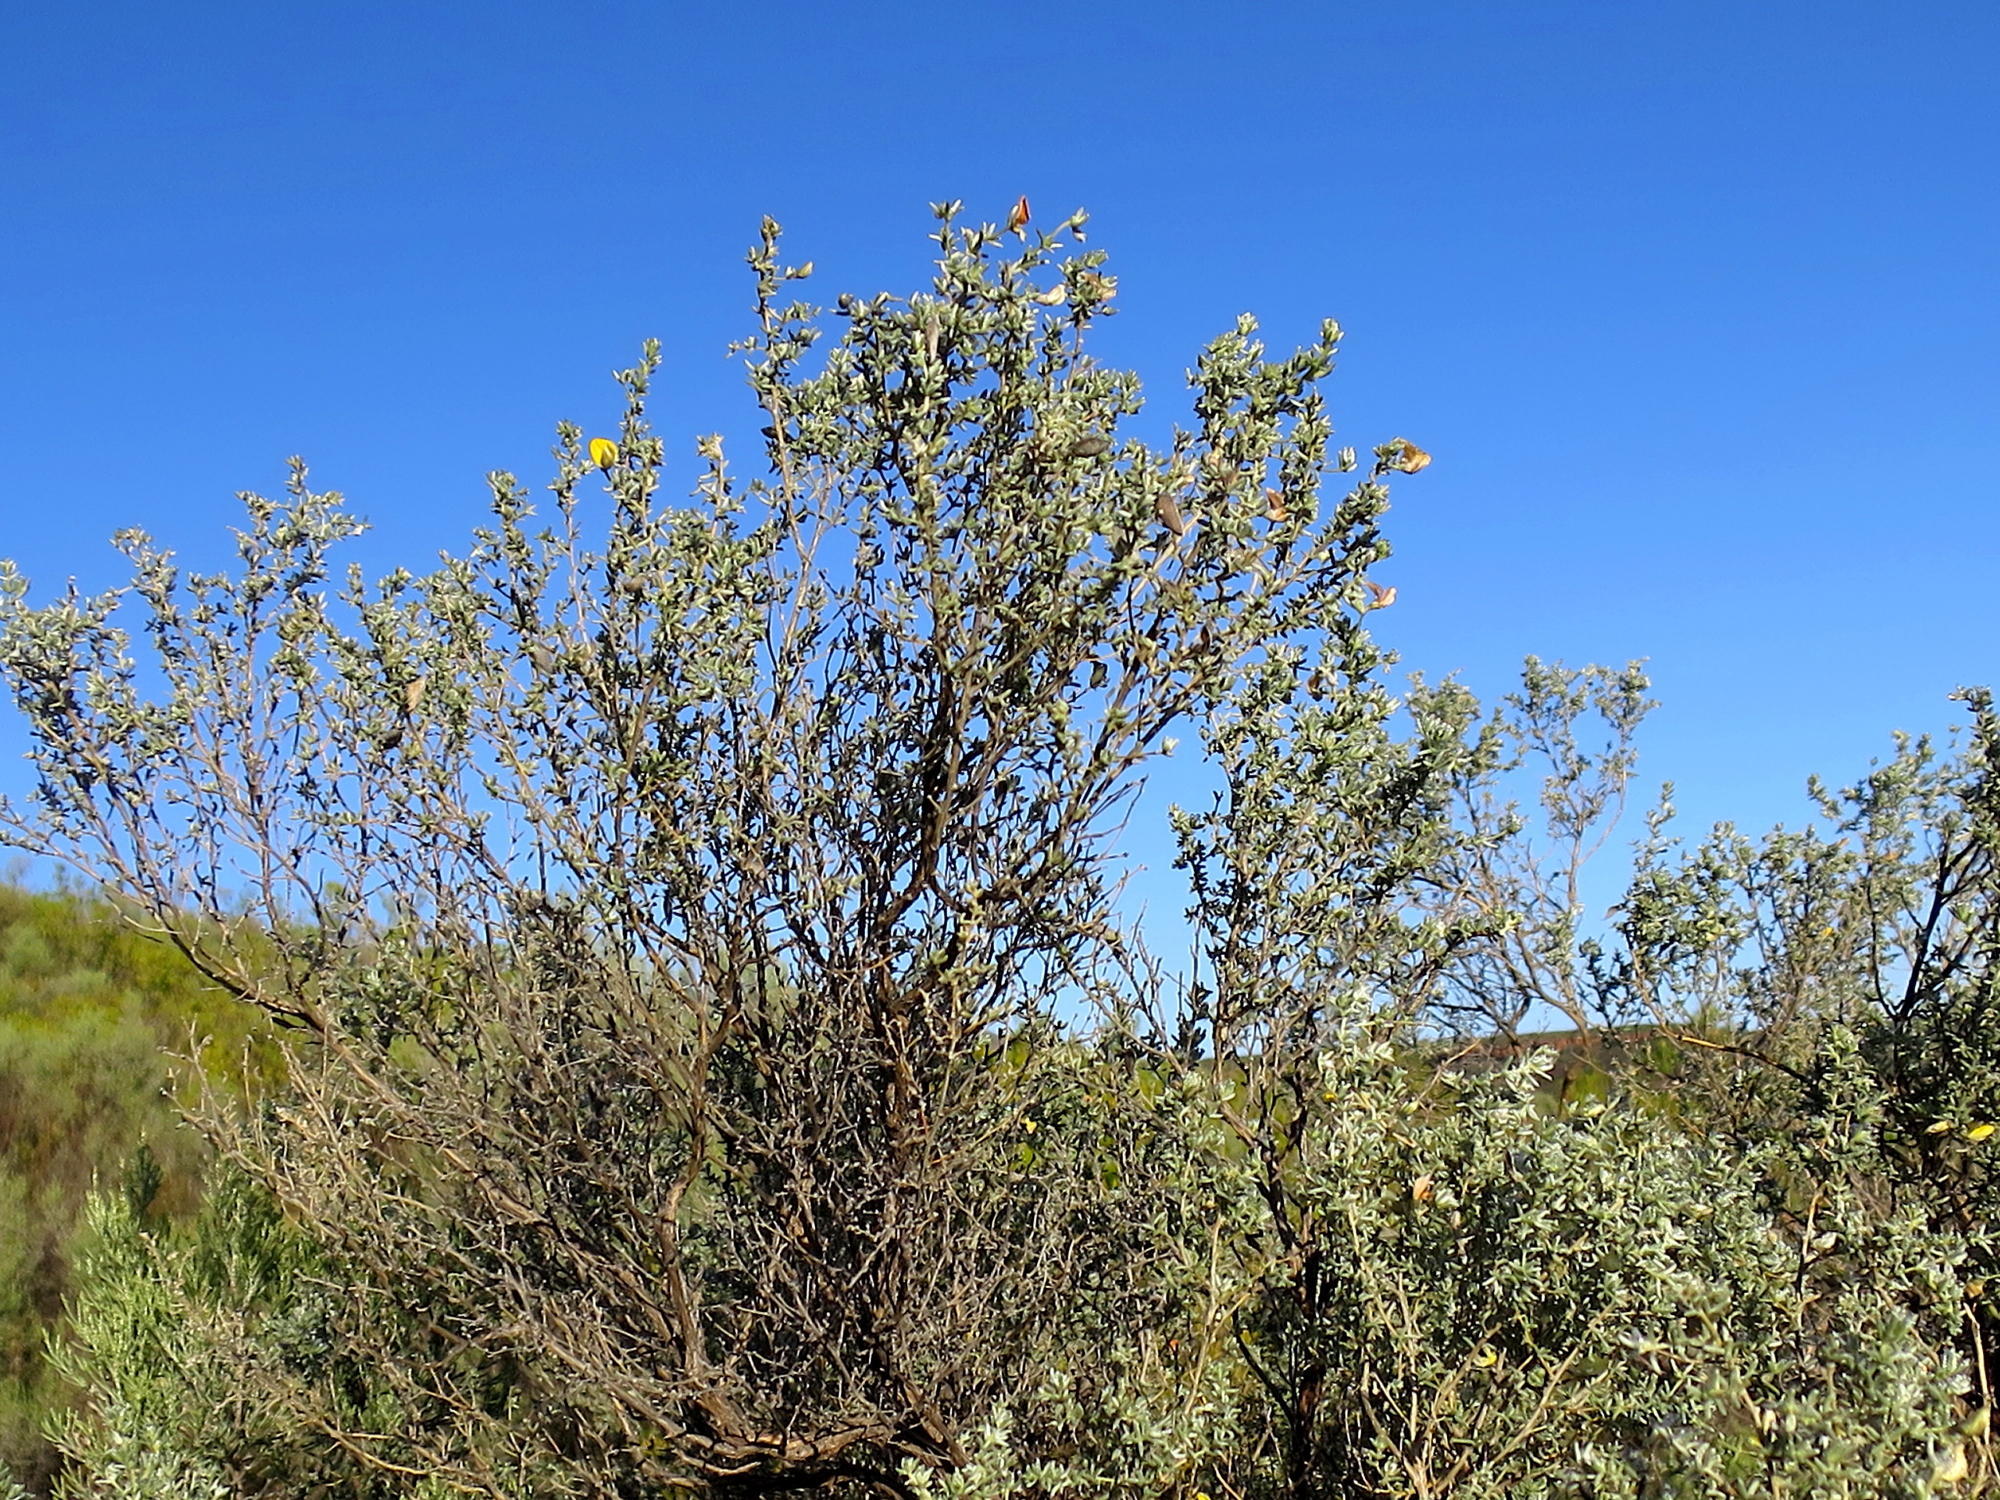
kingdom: Plantae
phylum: Tracheophyta
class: Magnoliopsida
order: Fabales
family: Fabaceae
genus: Aspalathus
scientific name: Aspalathus pedunculata
